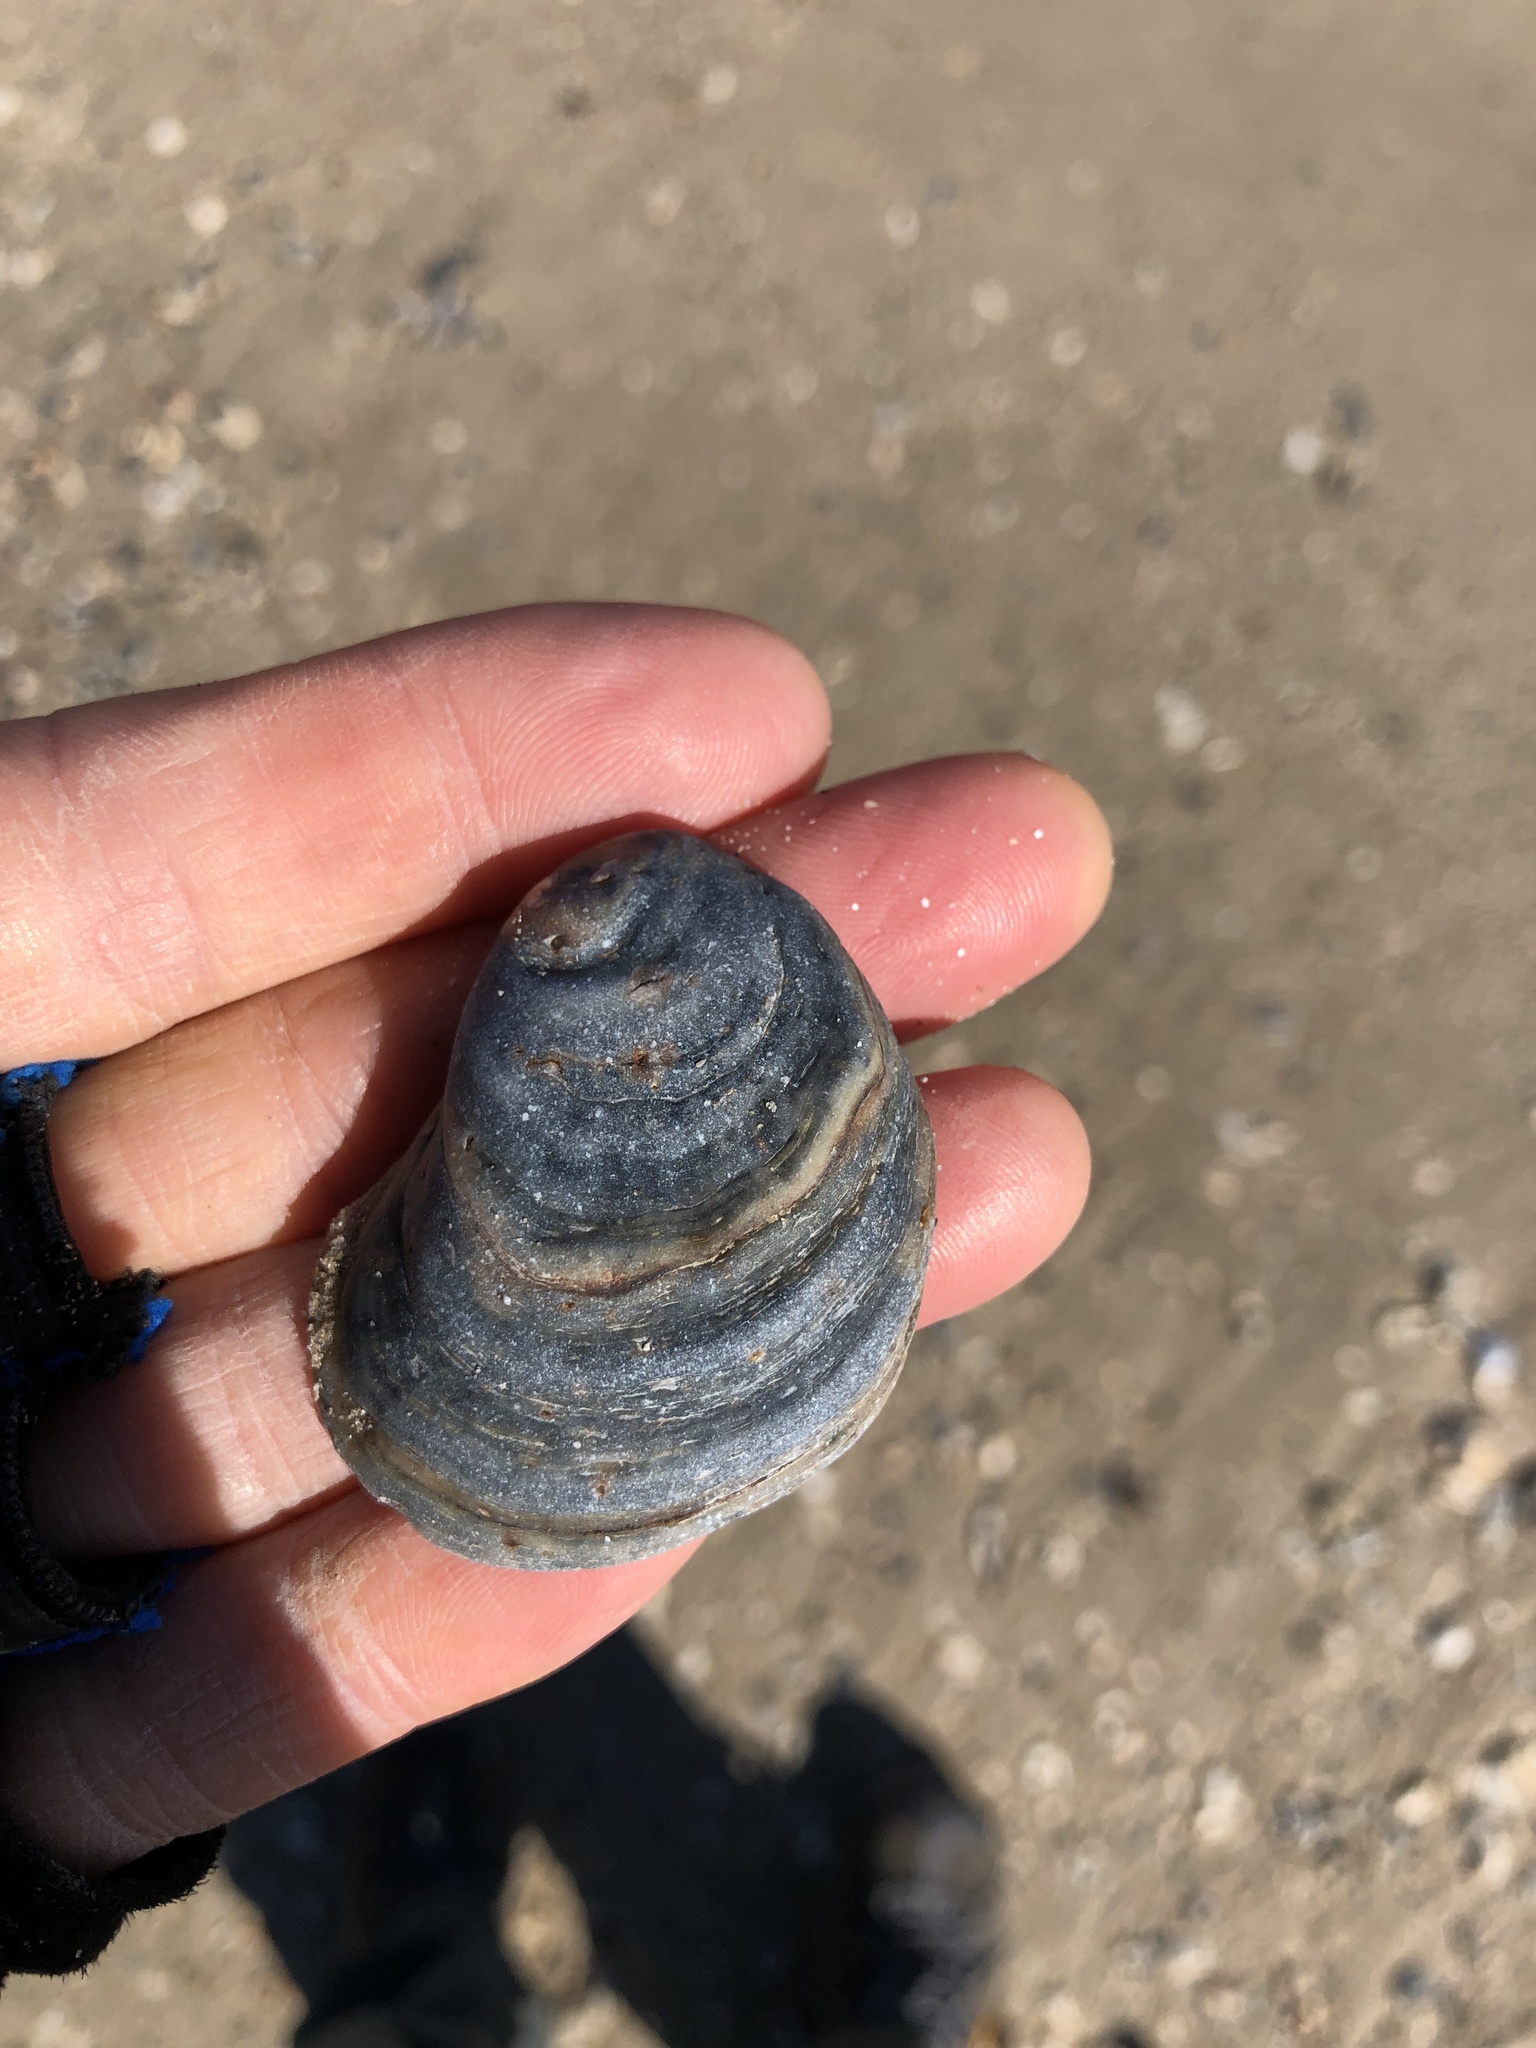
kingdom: Animalia
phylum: Mollusca
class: Bivalvia
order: Ostreida
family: Ostreidae
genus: Crassostrea
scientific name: Crassostrea virginica
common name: American oyster
